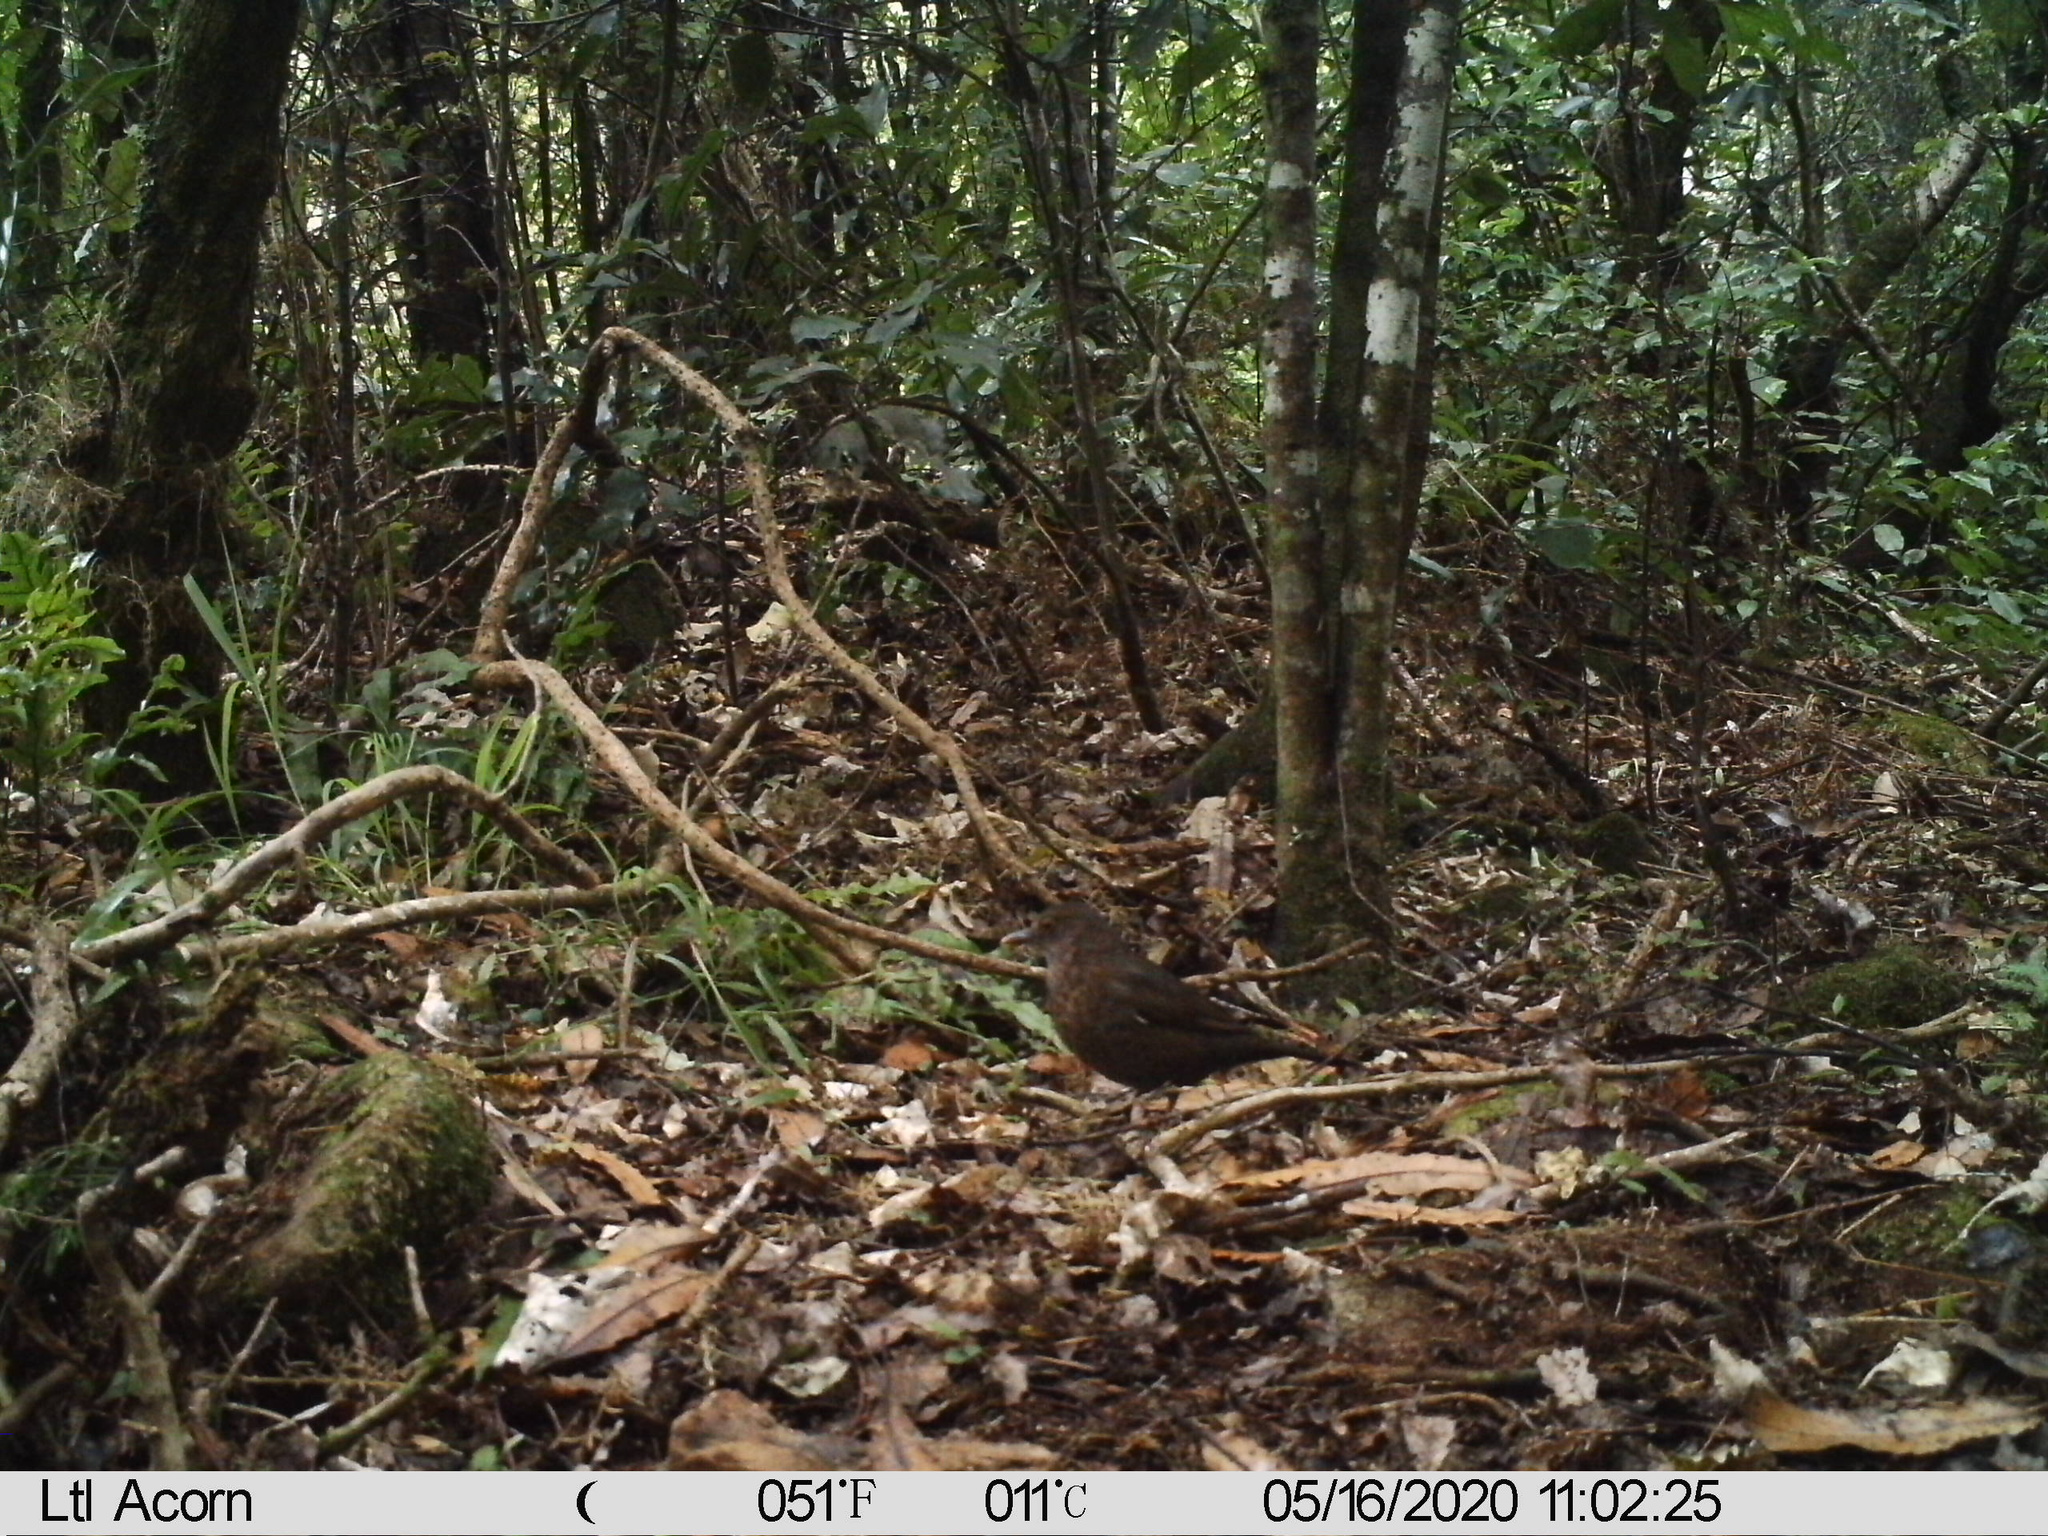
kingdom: Animalia
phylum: Chordata
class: Aves
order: Passeriformes
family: Turdidae
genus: Turdus
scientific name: Turdus merula
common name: Common blackbird
